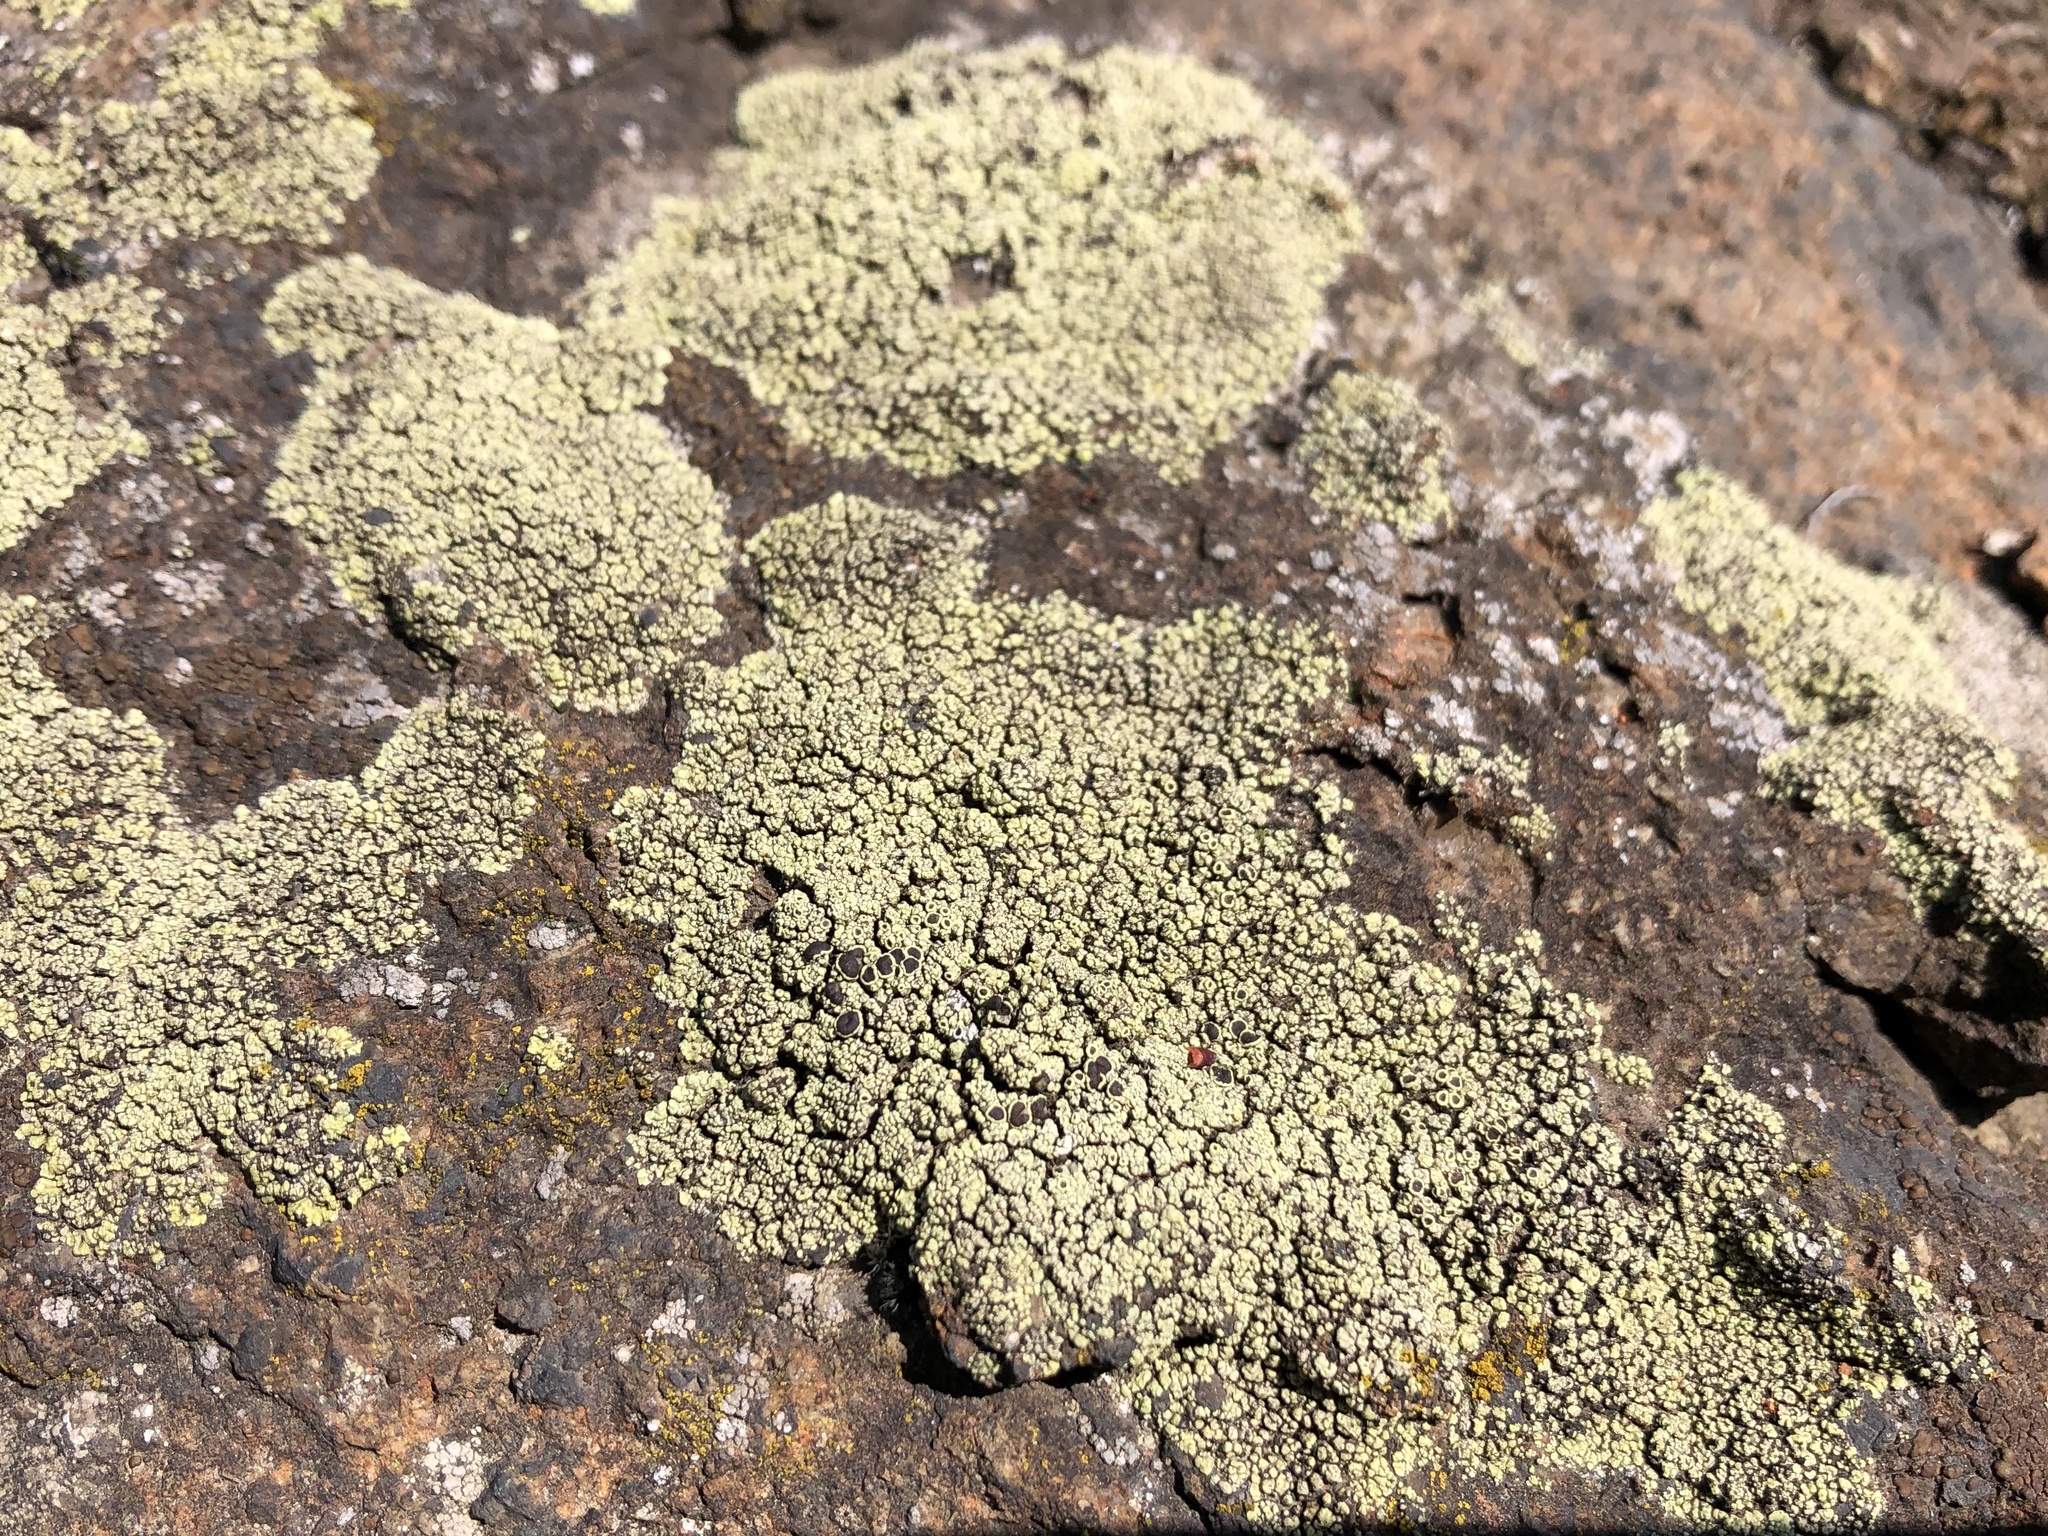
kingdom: Fungi
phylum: Ascomycota
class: Lecanoromycetes
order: Lecanorales
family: Lecanoraceae
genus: Lecanora
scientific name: Lecanora argopholis
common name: Varying rim lichen
